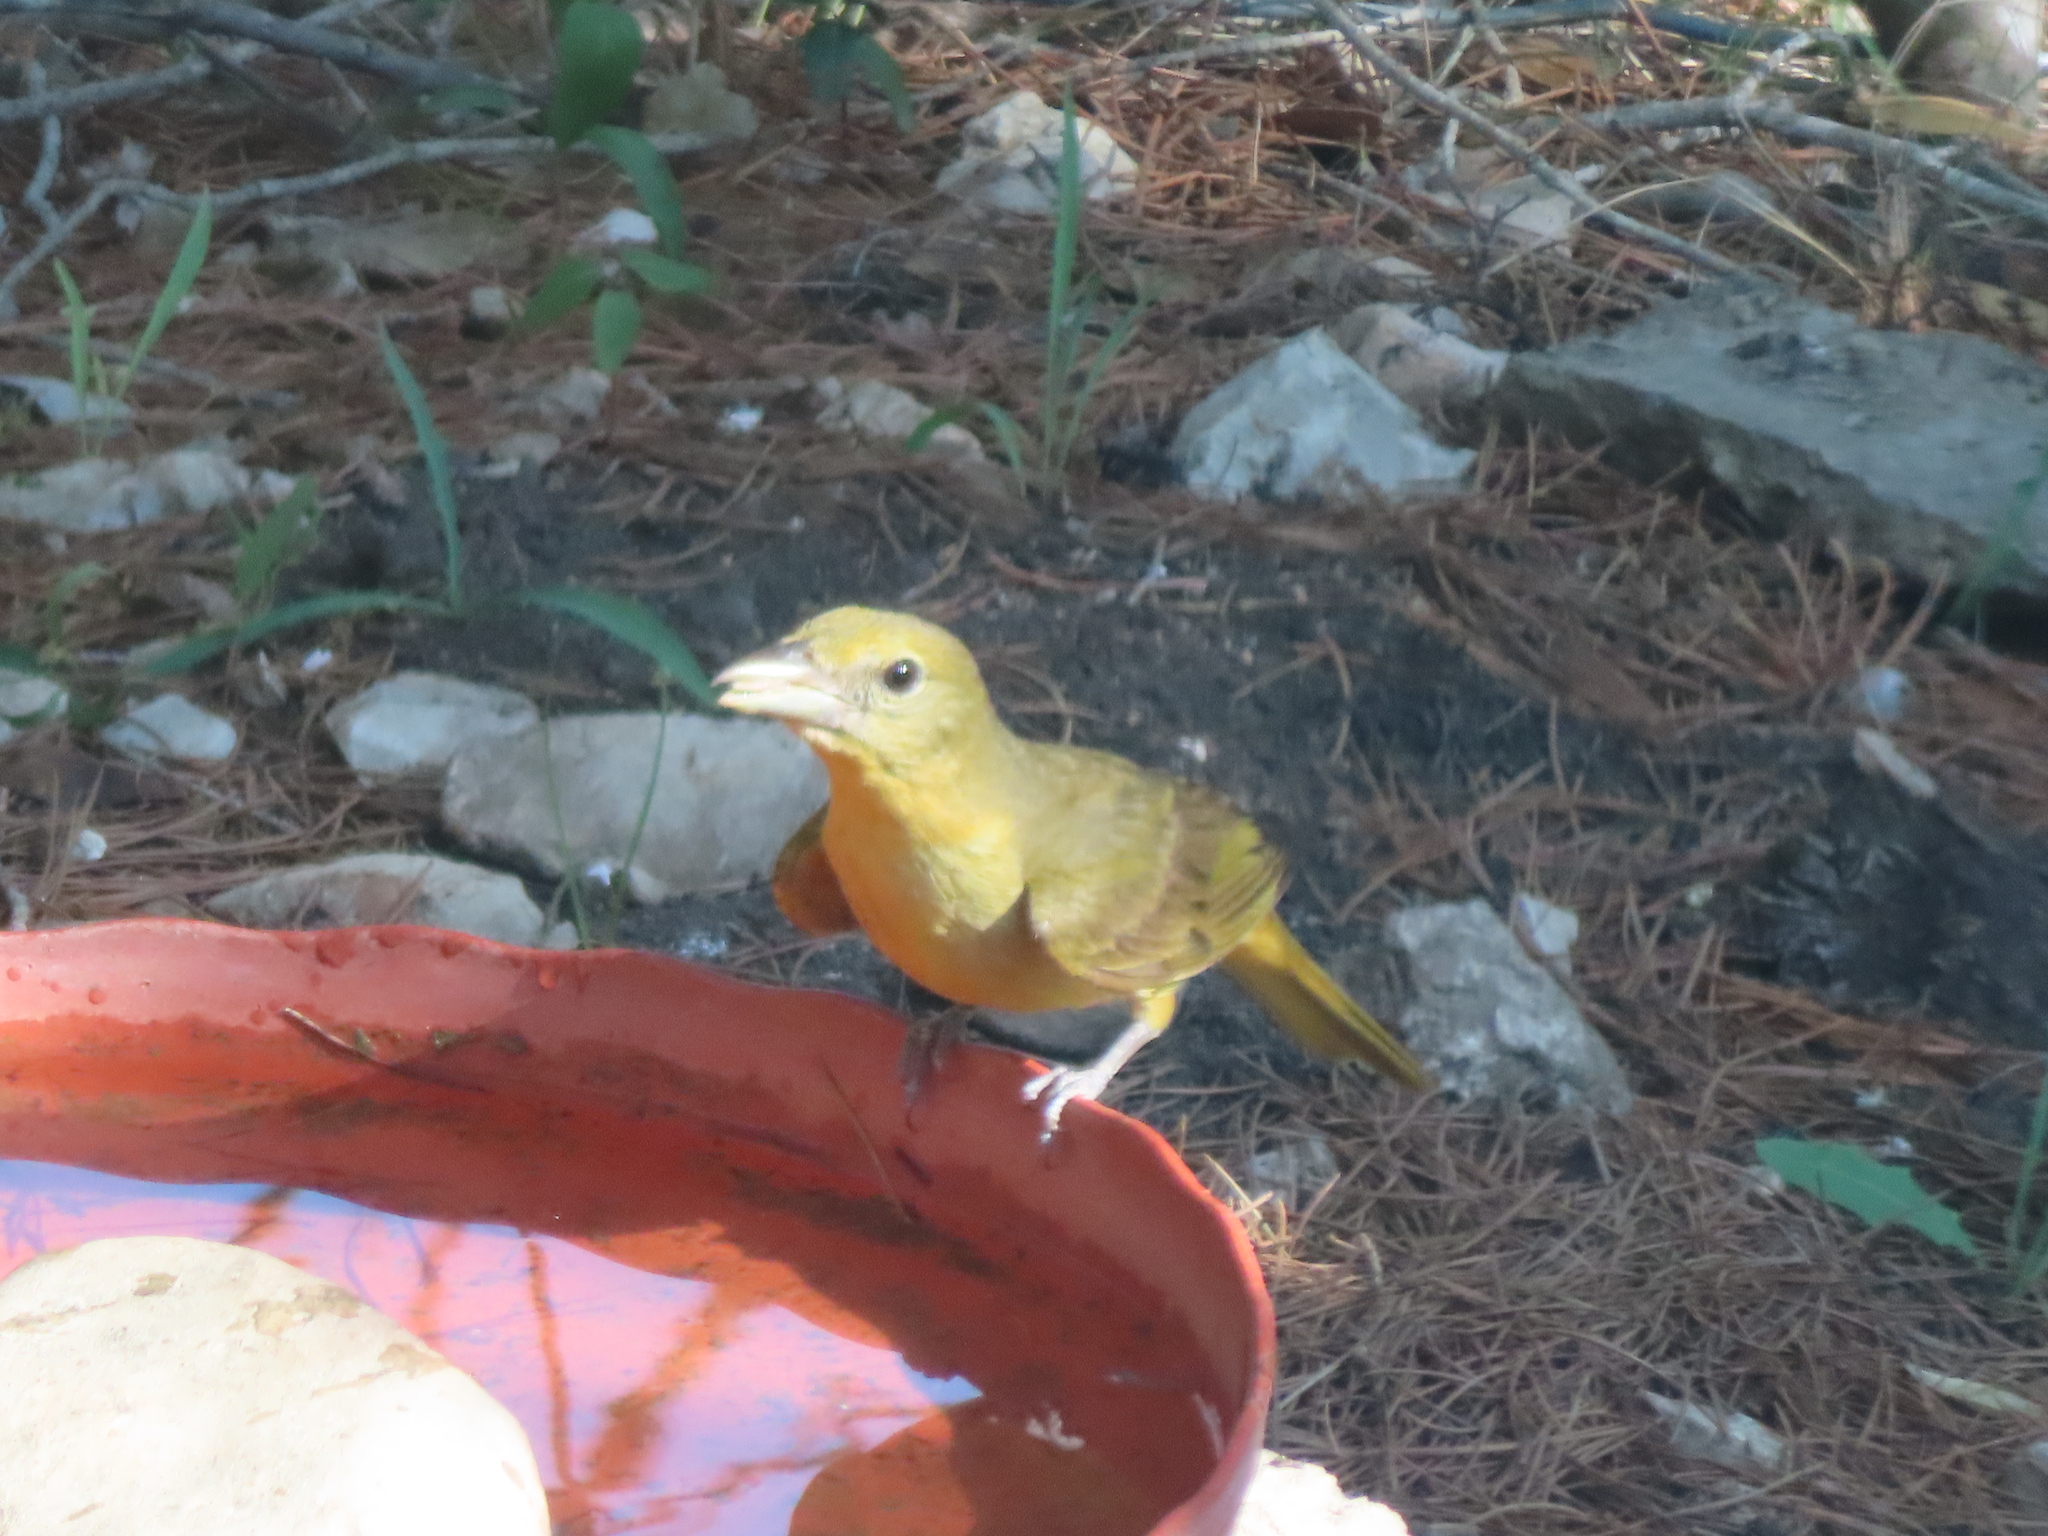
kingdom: Animalia
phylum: Chordata
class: Aves
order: Passeriformes
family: Cardinalidae
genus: Piranga
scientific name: Piranga rubra
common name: Summer tanager
